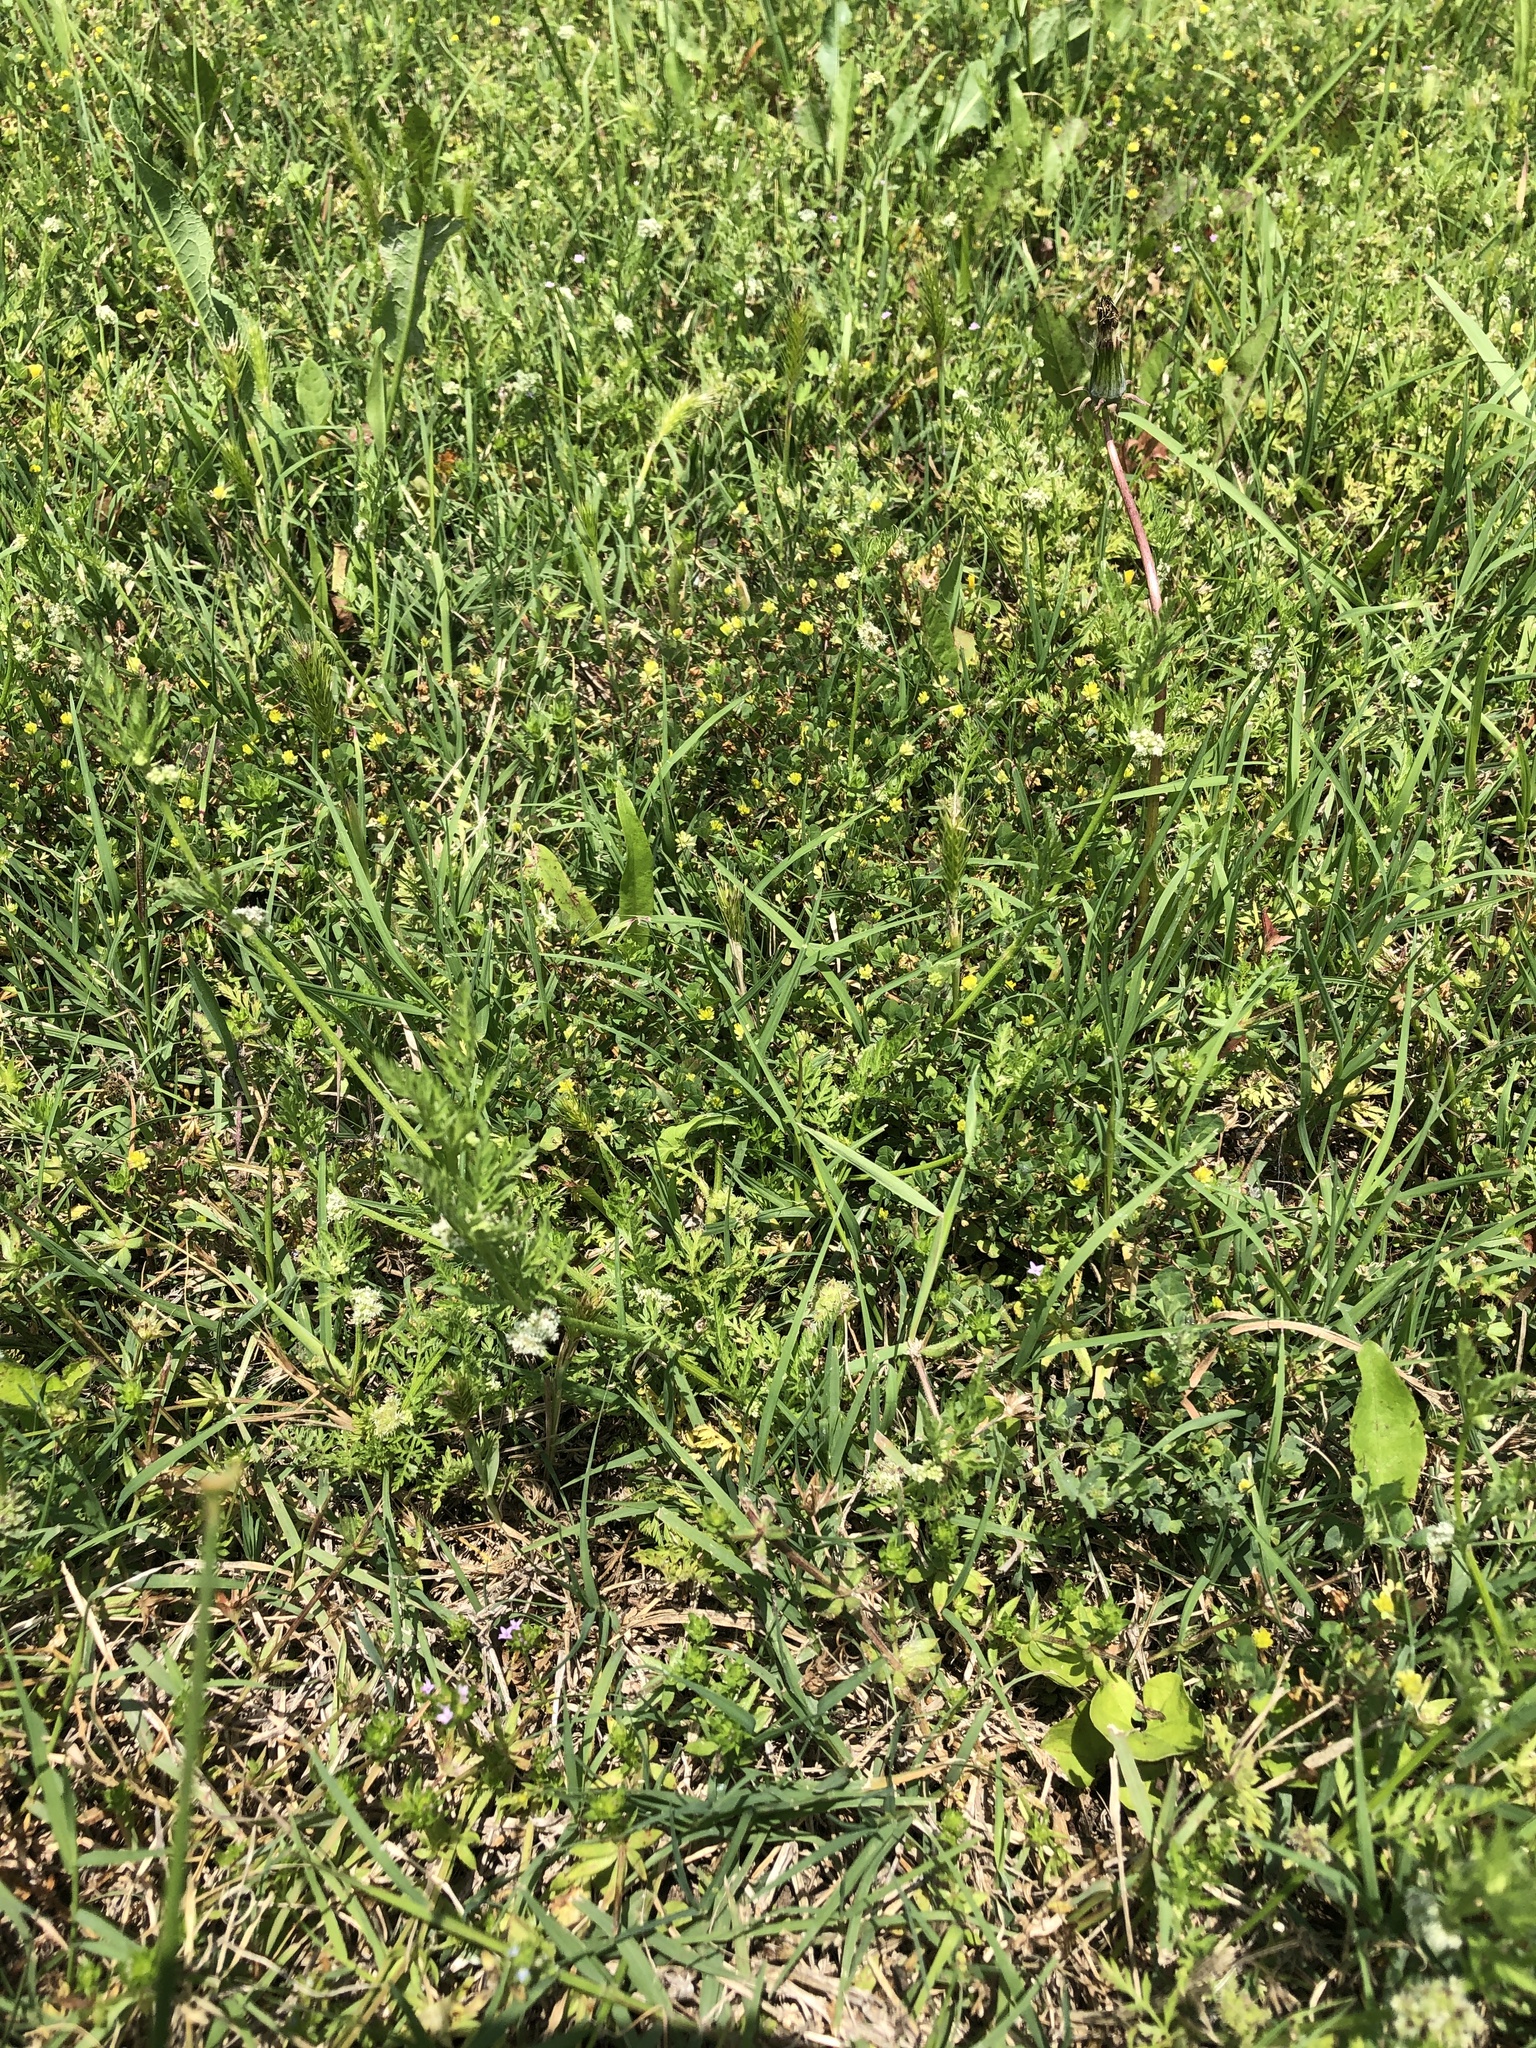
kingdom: Plantae
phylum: Tracheophyta
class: Magnoliopsida
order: Apiales
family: Apiaceae
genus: Torilis
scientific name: Torilis nodosa
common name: Knotted hedge-parsley
